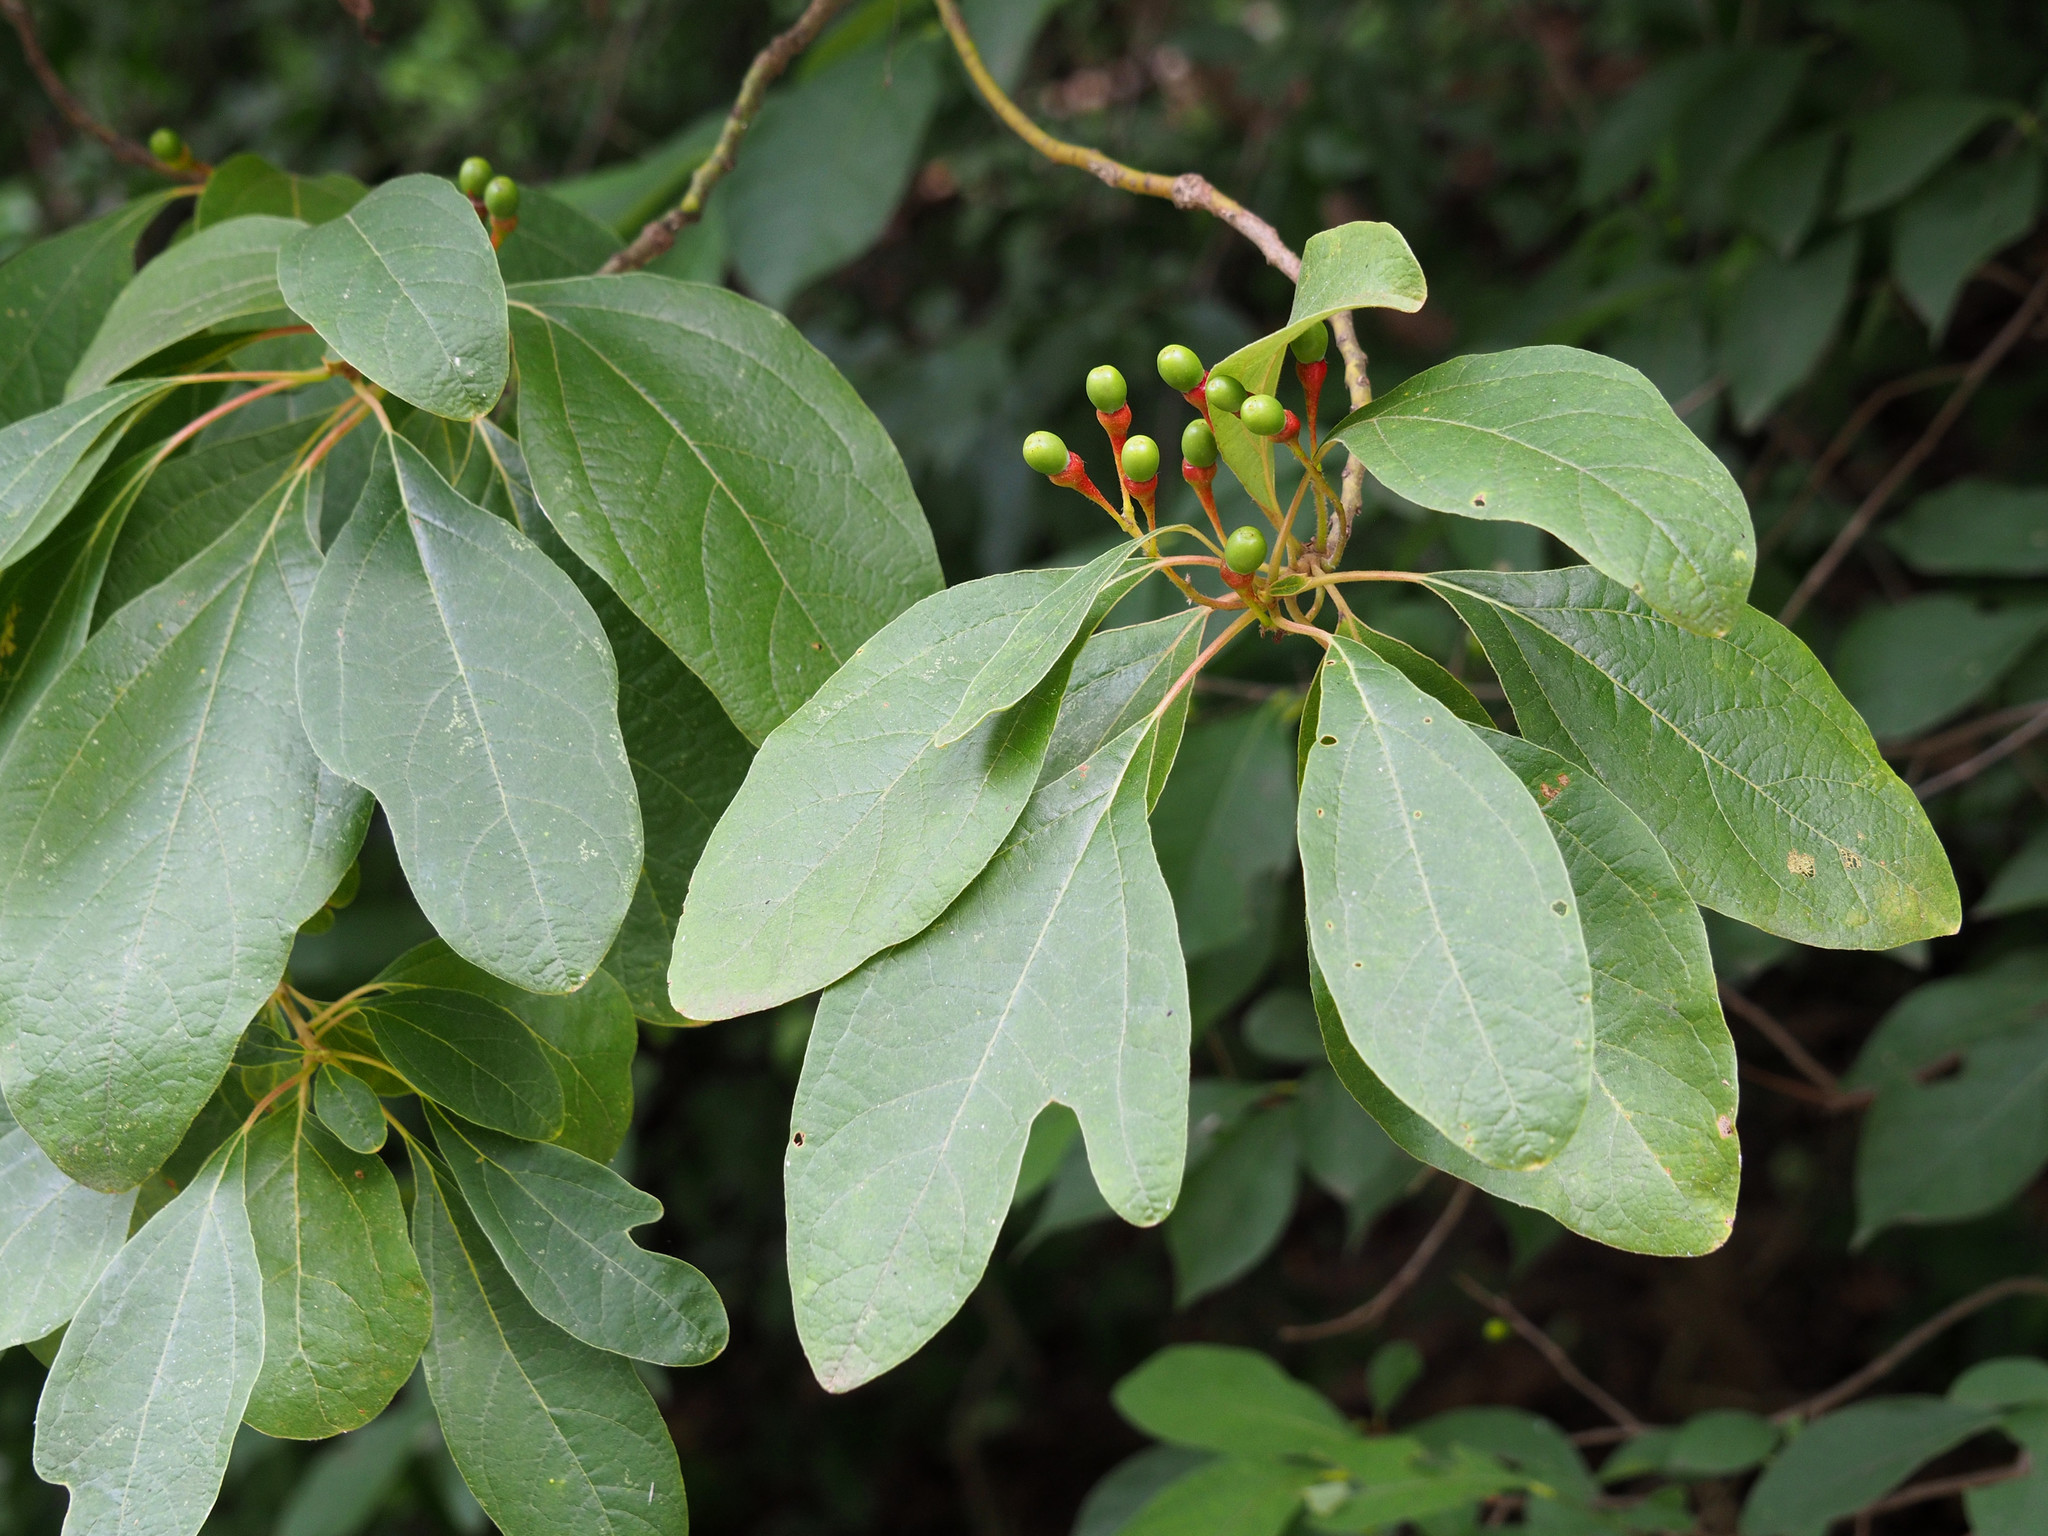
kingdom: Plantae
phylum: Tracheophyta
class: Magnoliopsida
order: Laurales
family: Lauraceae
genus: Sassafras
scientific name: Sassafras albidum
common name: Sassafras
